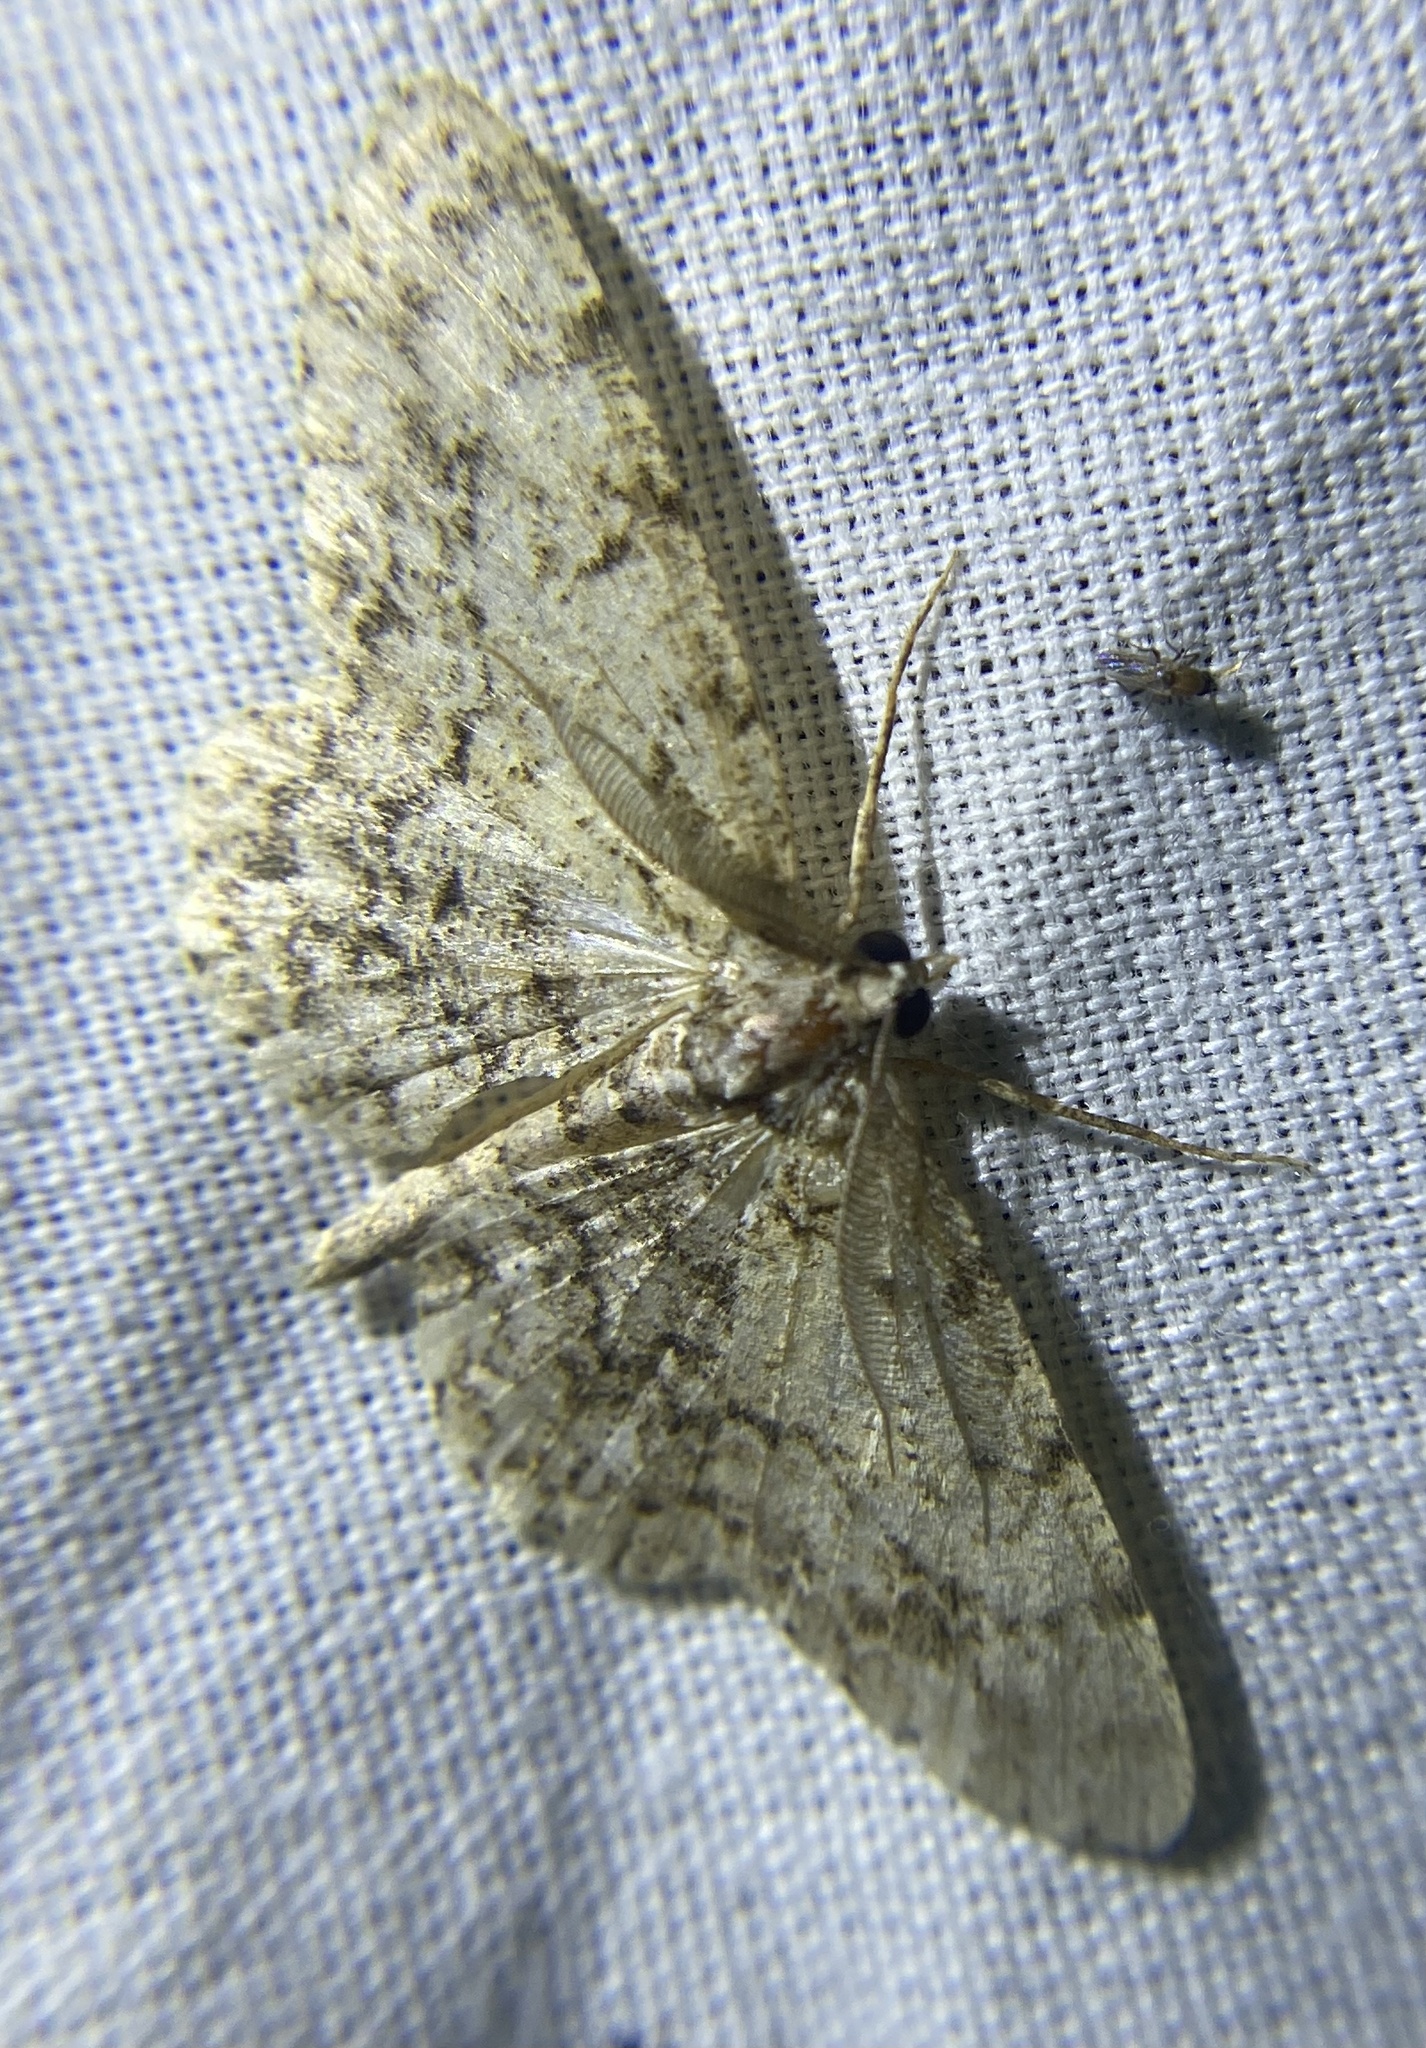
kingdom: Animalia
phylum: Arthropoda
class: Insecta
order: Lepidoptera
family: Geometridae
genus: Protoboarmia
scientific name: Protoboarmia porcelaria
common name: Porcelain gray
